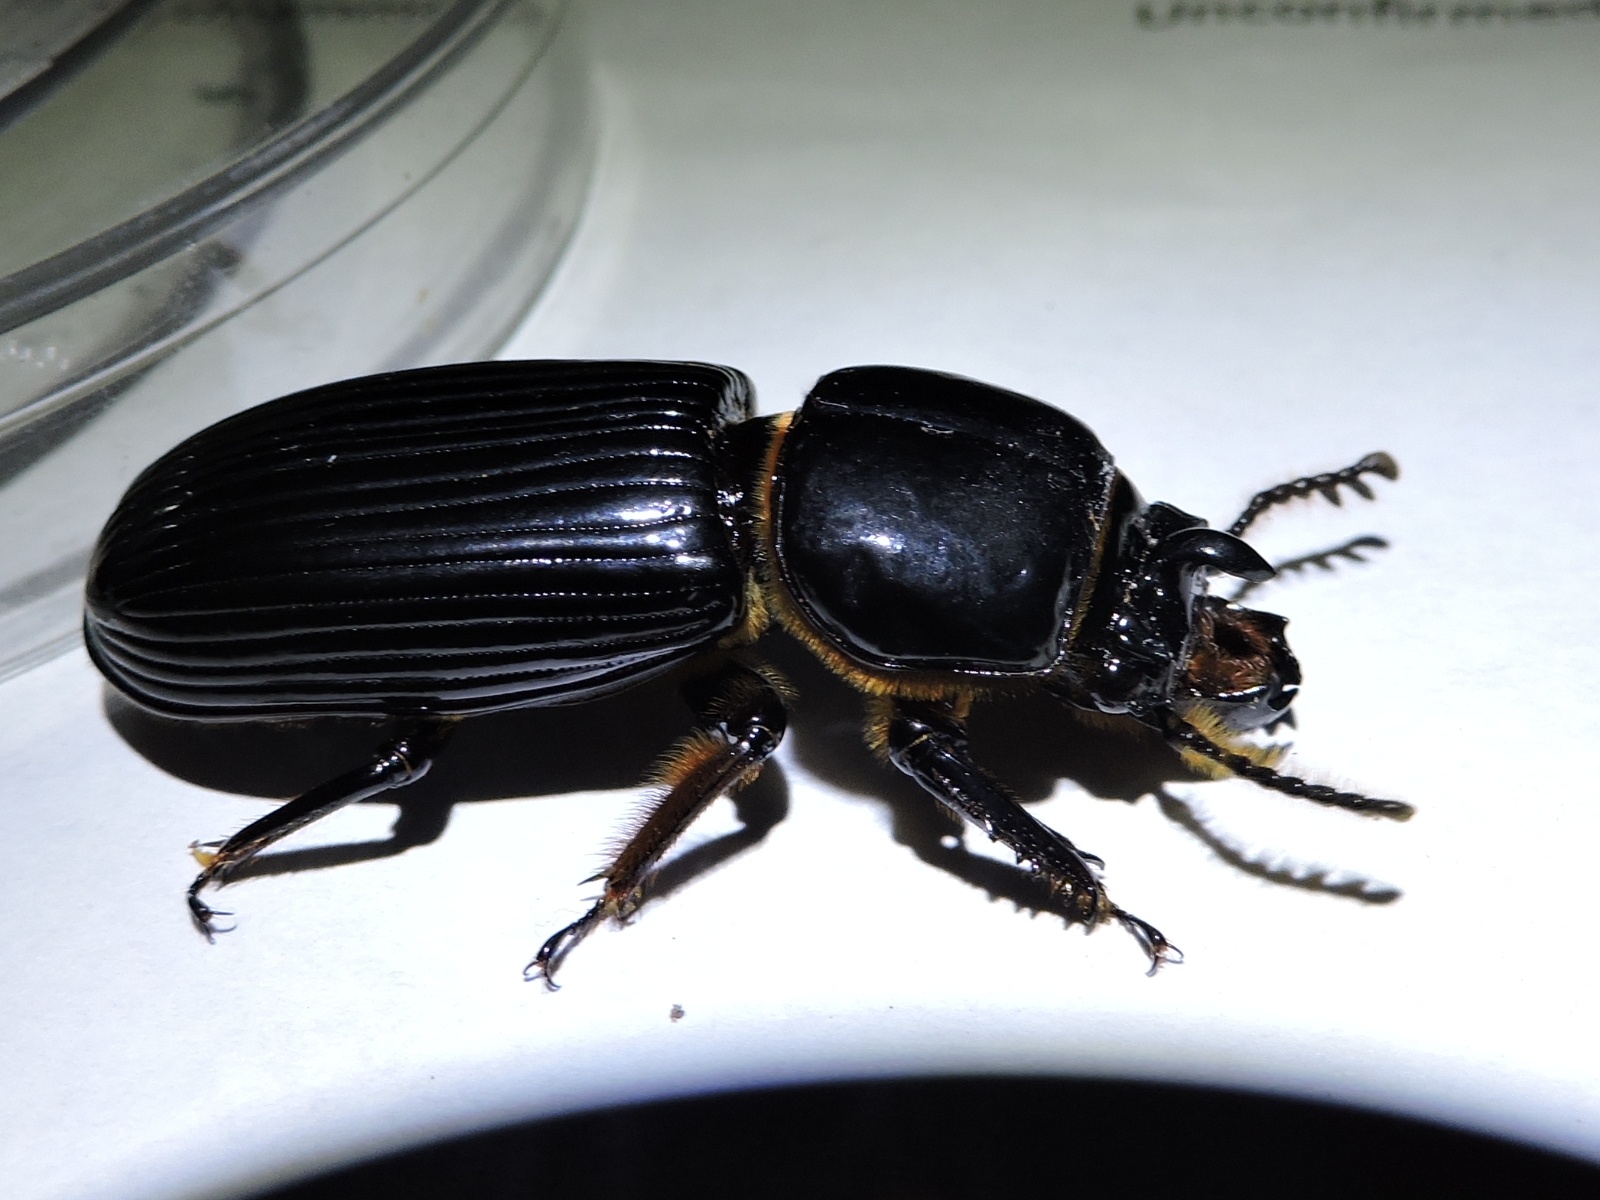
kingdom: Animalia
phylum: Arthropoda
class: Insecta
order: Coleoptera
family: Passalidae
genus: Odontotaenius
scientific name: Odontotaenius disjunctus
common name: Patent leather beetle
